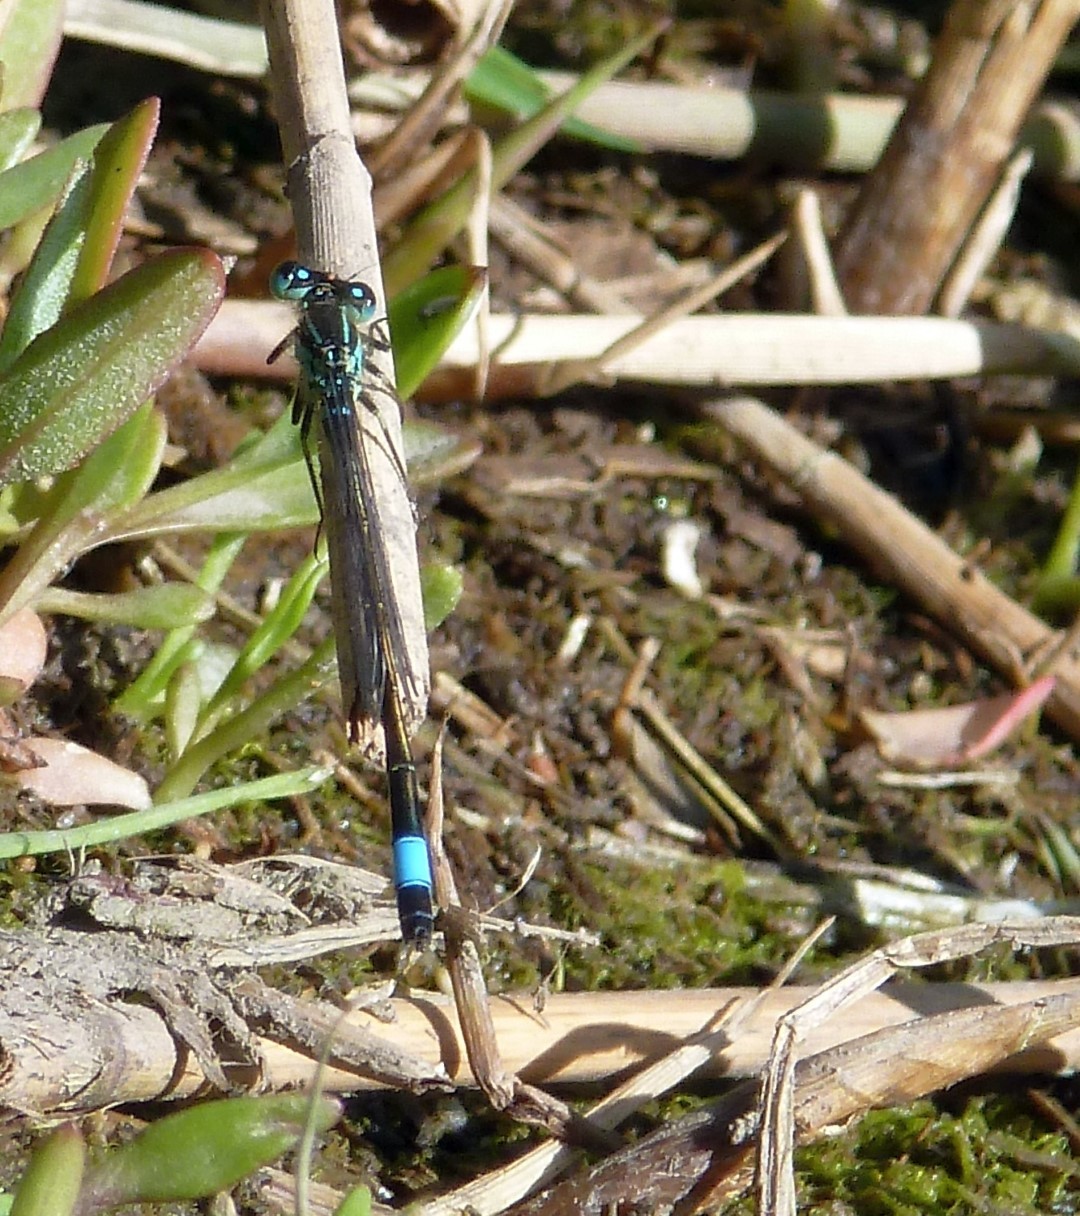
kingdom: Animalia
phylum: Arthropoda
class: Insecta
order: Odonata
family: Coenagrionidae
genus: Ischnura
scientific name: Ischnura elegans
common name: Blue-tailed damselfly
